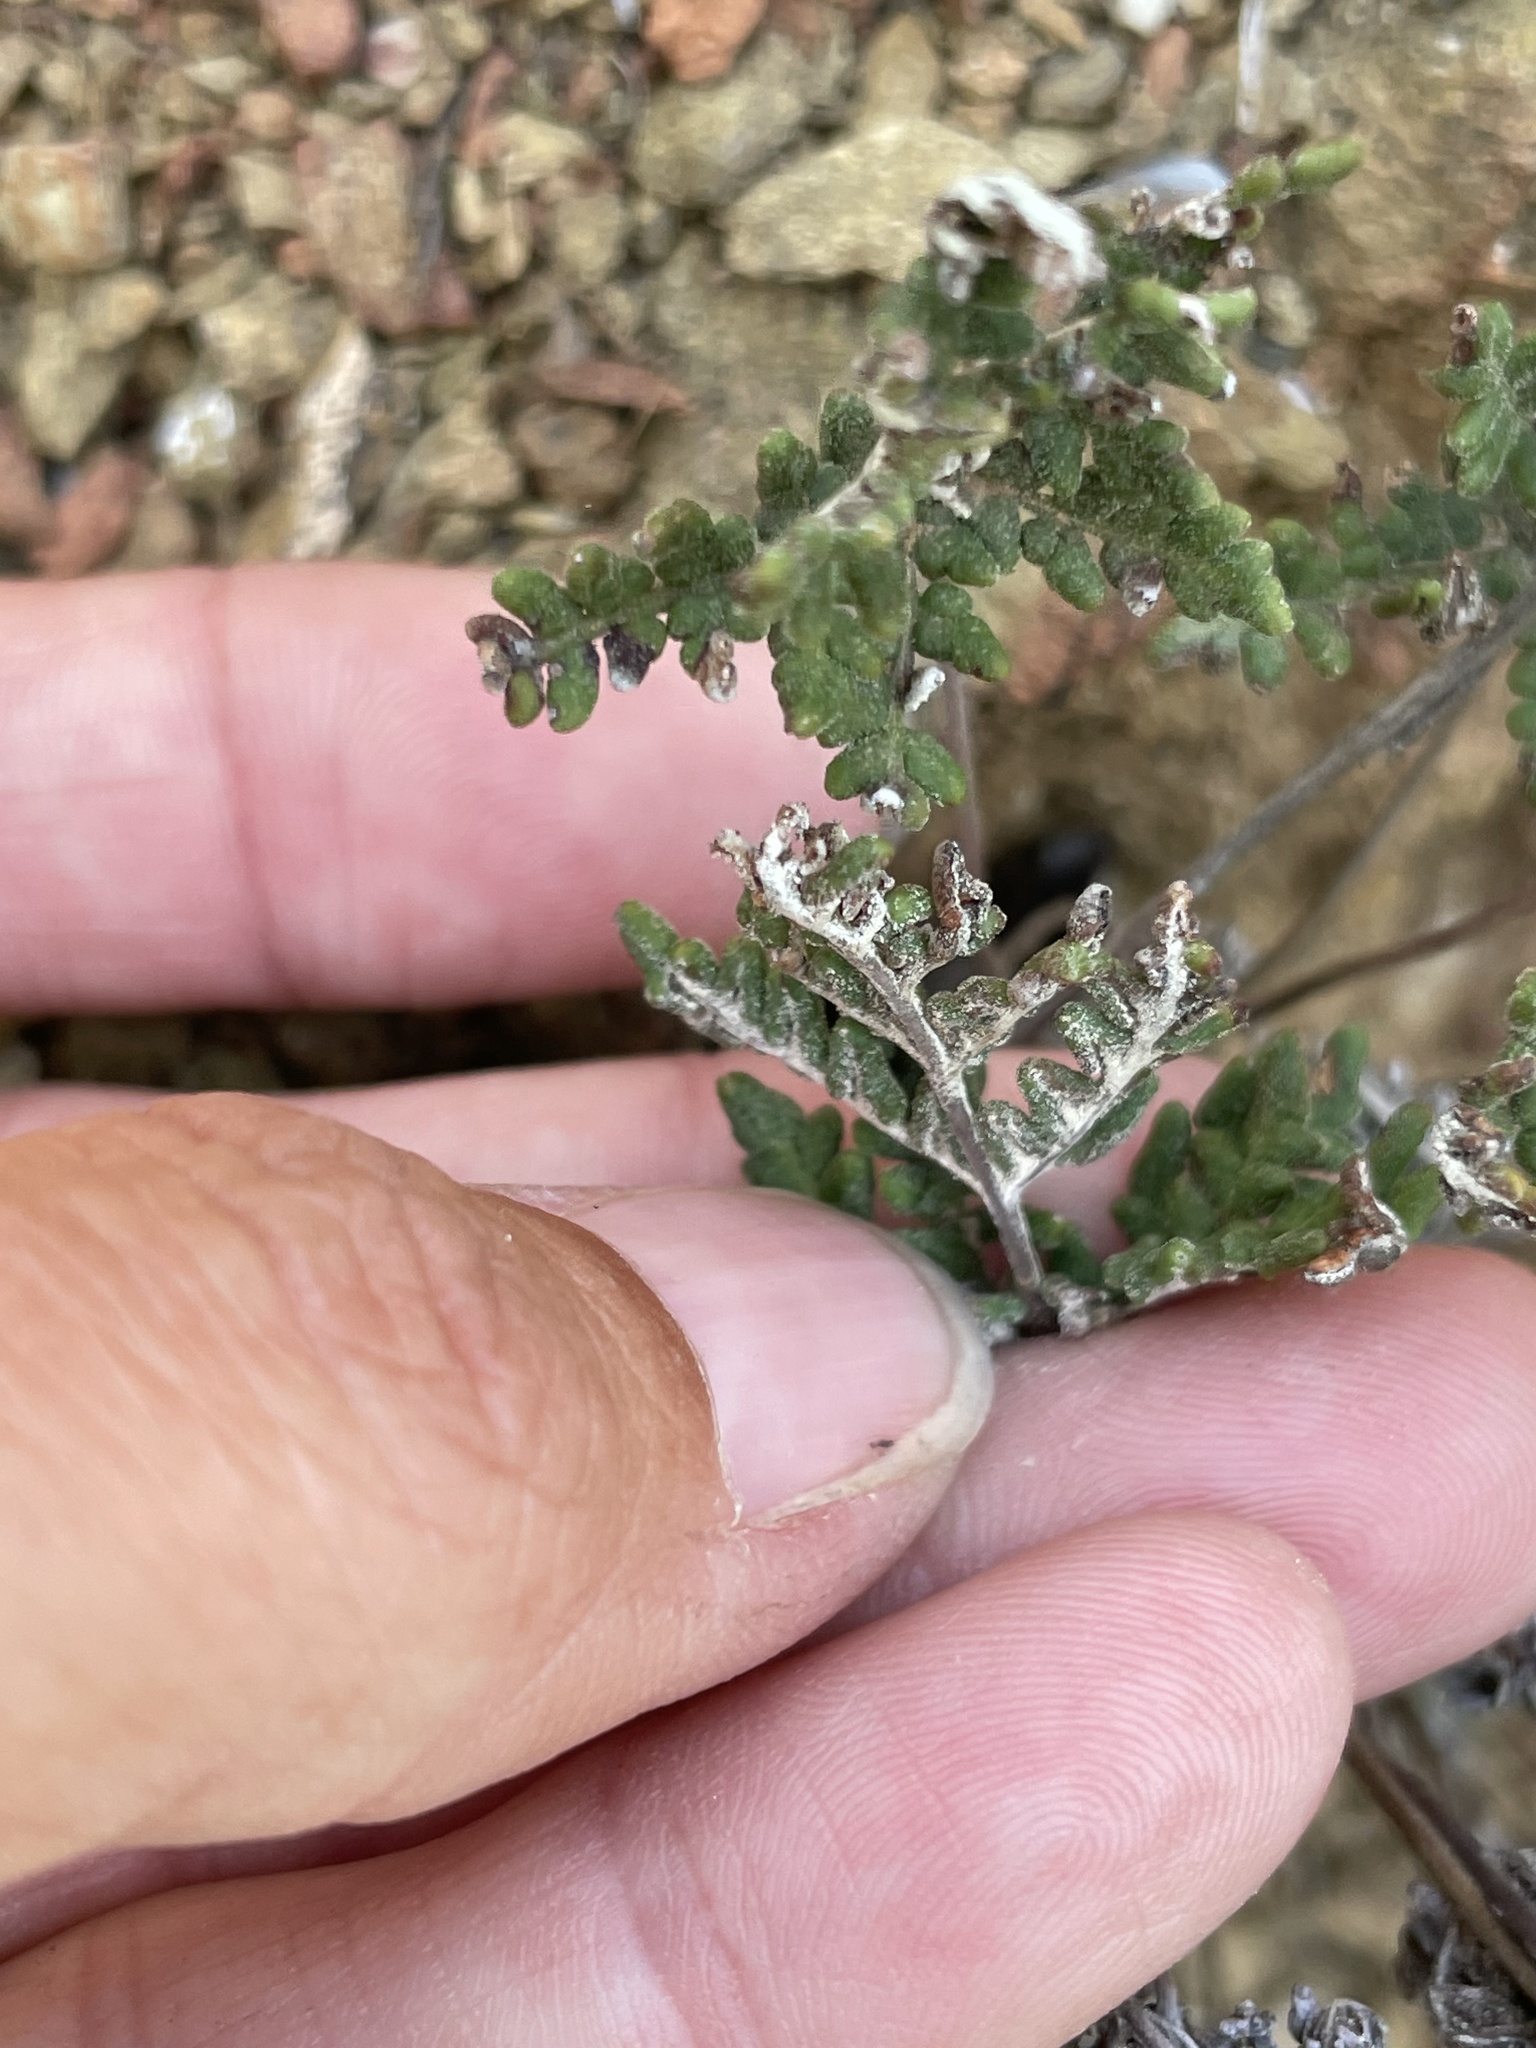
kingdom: Plantae
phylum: Tracheophyta
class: Polypodiopsida
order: Polypodiales
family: Pteridaceae
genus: Notholaena
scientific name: Notholaena californica
